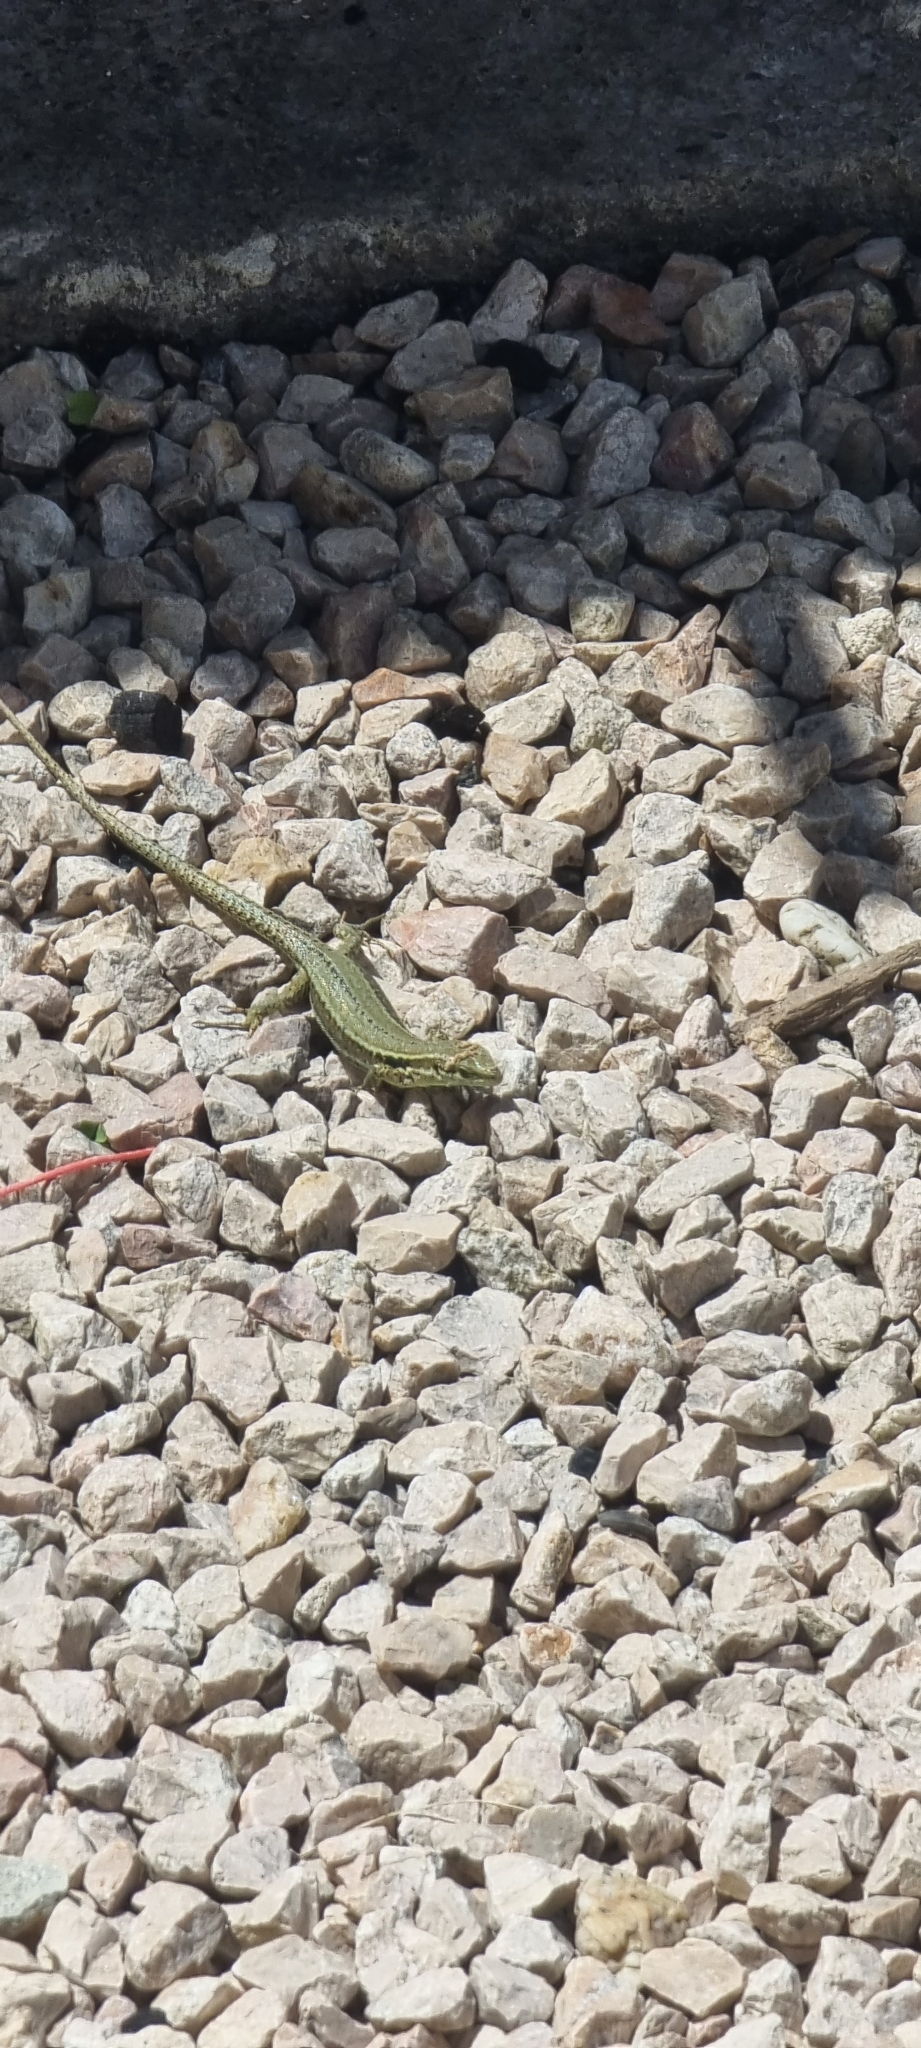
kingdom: Animalia
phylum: Chordata
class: Squamata
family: Lacertidae
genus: Podarcis
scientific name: Podarcis muralis
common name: Common wall lizard
